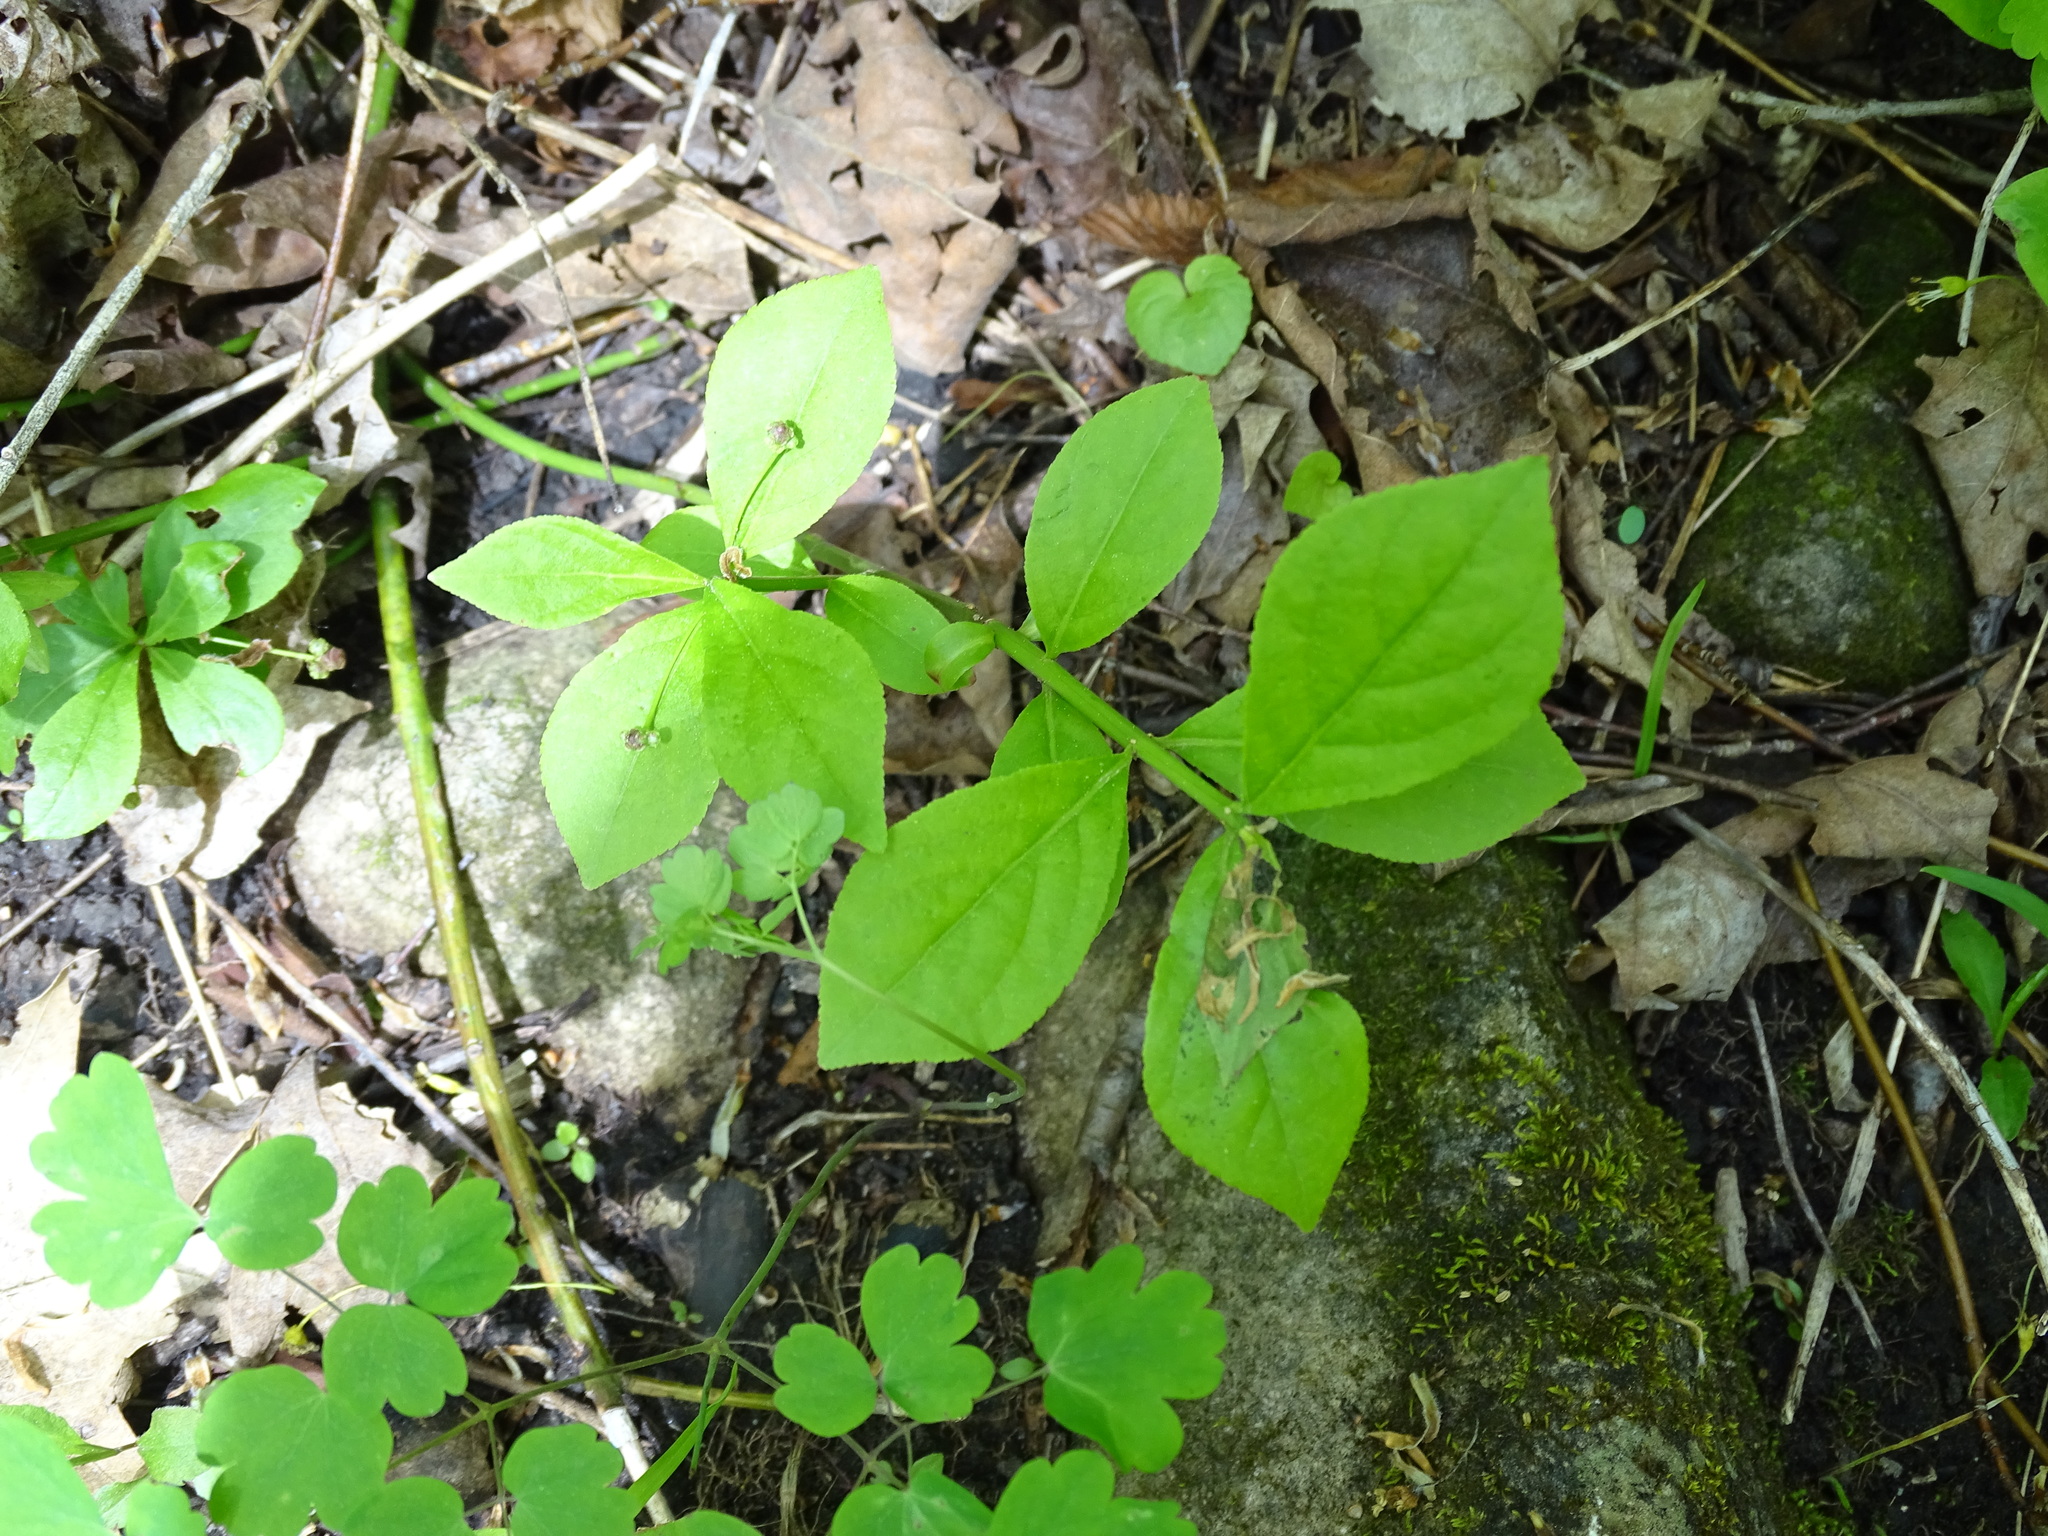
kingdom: Plantae
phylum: Tracheophyta
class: Magnoliopsida
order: Celastrales
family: Celastraceae
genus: Euonymus
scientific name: Euonymus obovatus
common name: Running strawberry-bush
